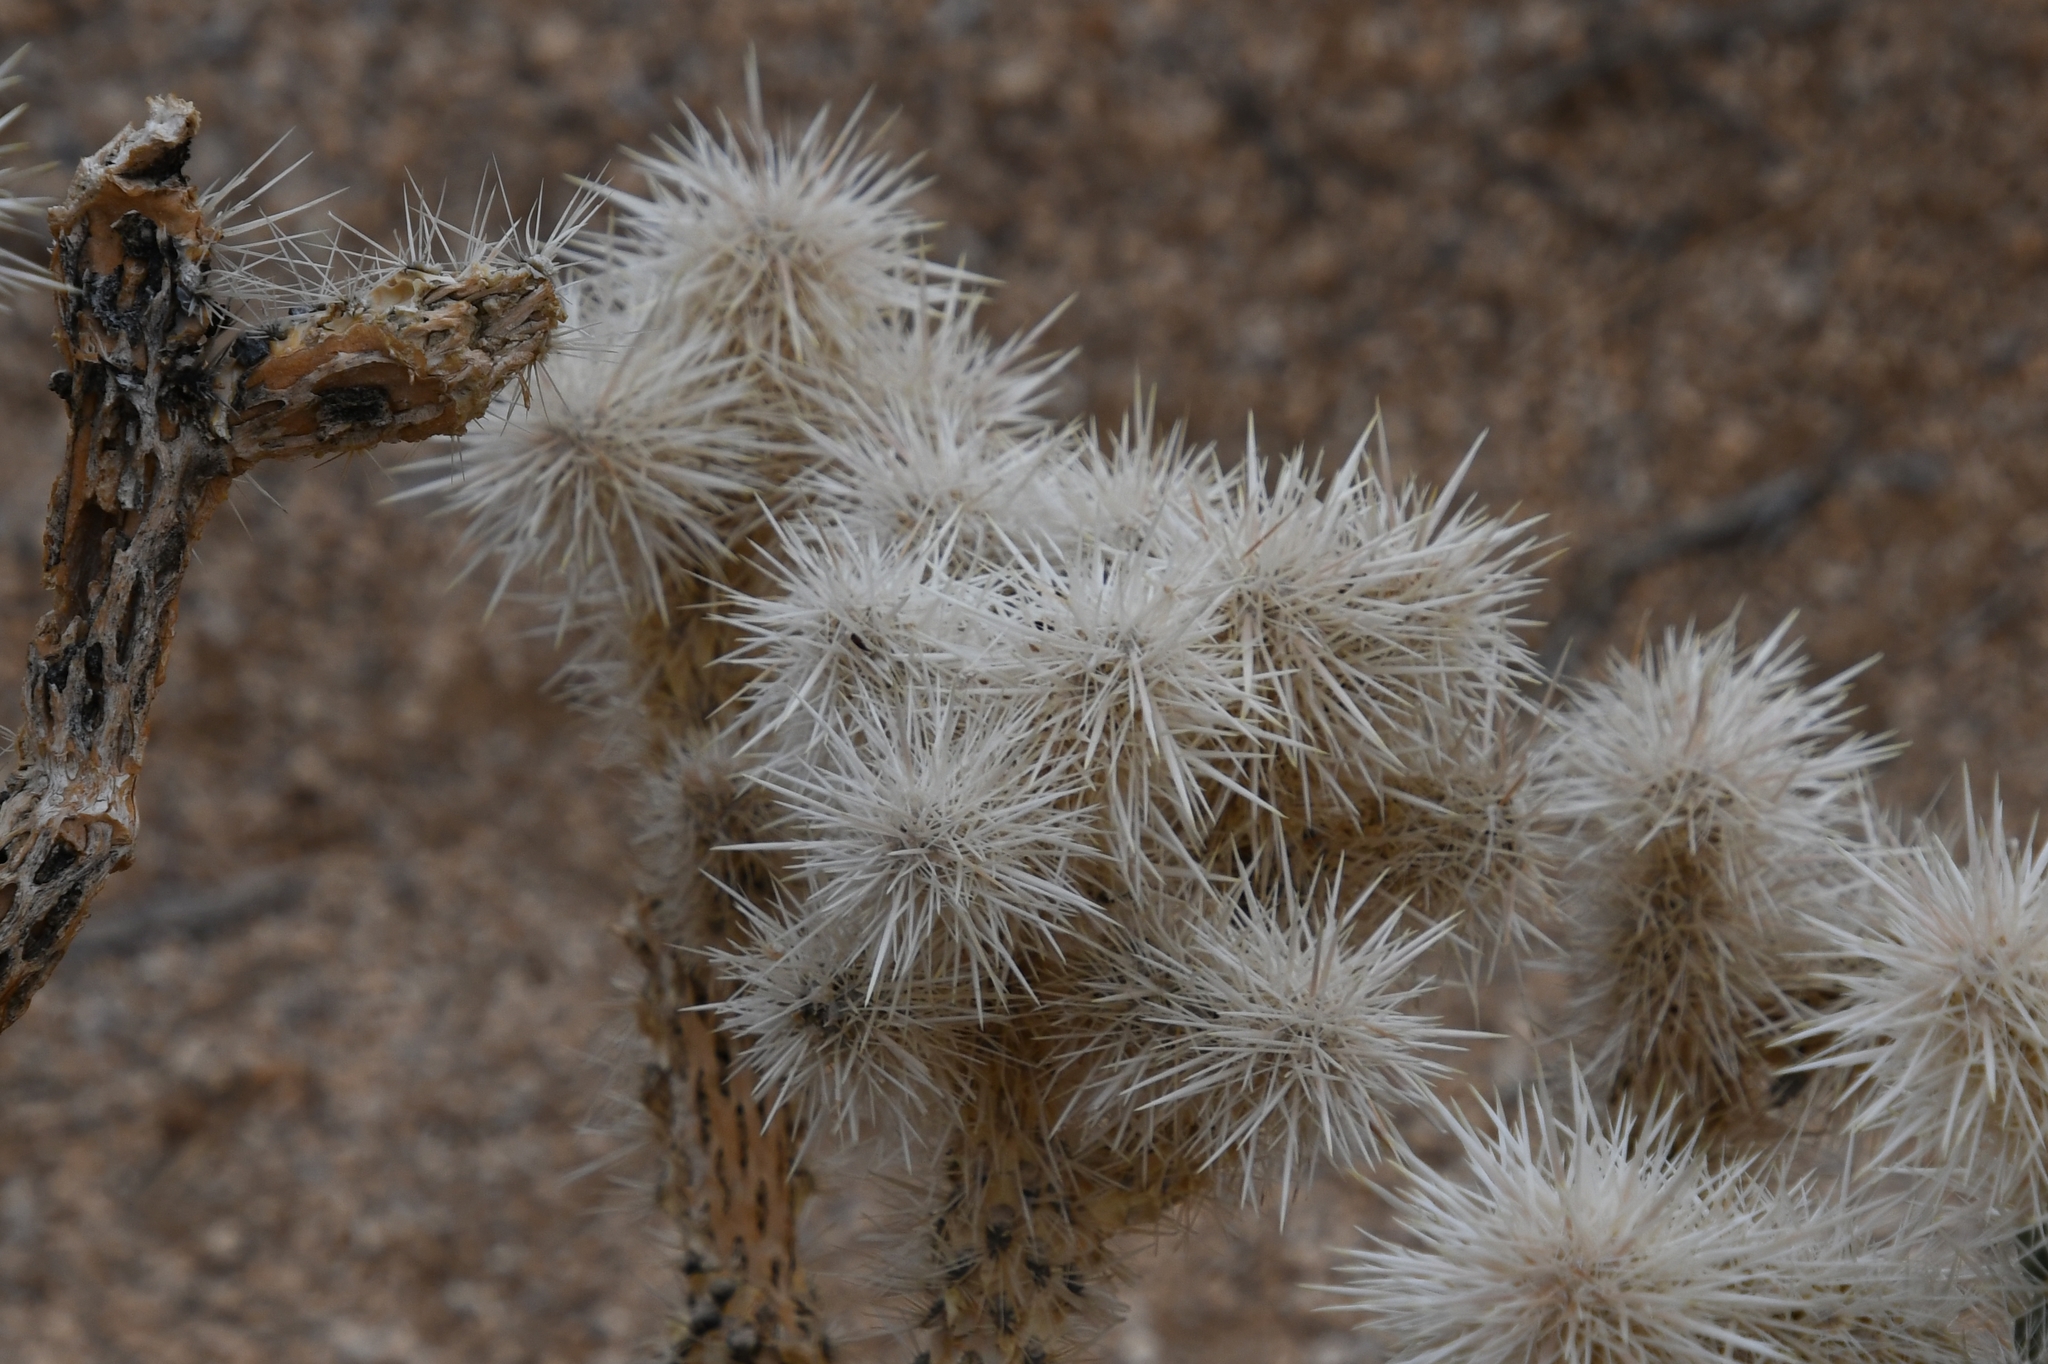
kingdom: Plantae
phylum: Tracheophyta
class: Magnoliopsida
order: Caryophyllales
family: Cactaceae
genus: Cylindropuntia
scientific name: Cylindropuntia echinocarpa
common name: Ground cholla
